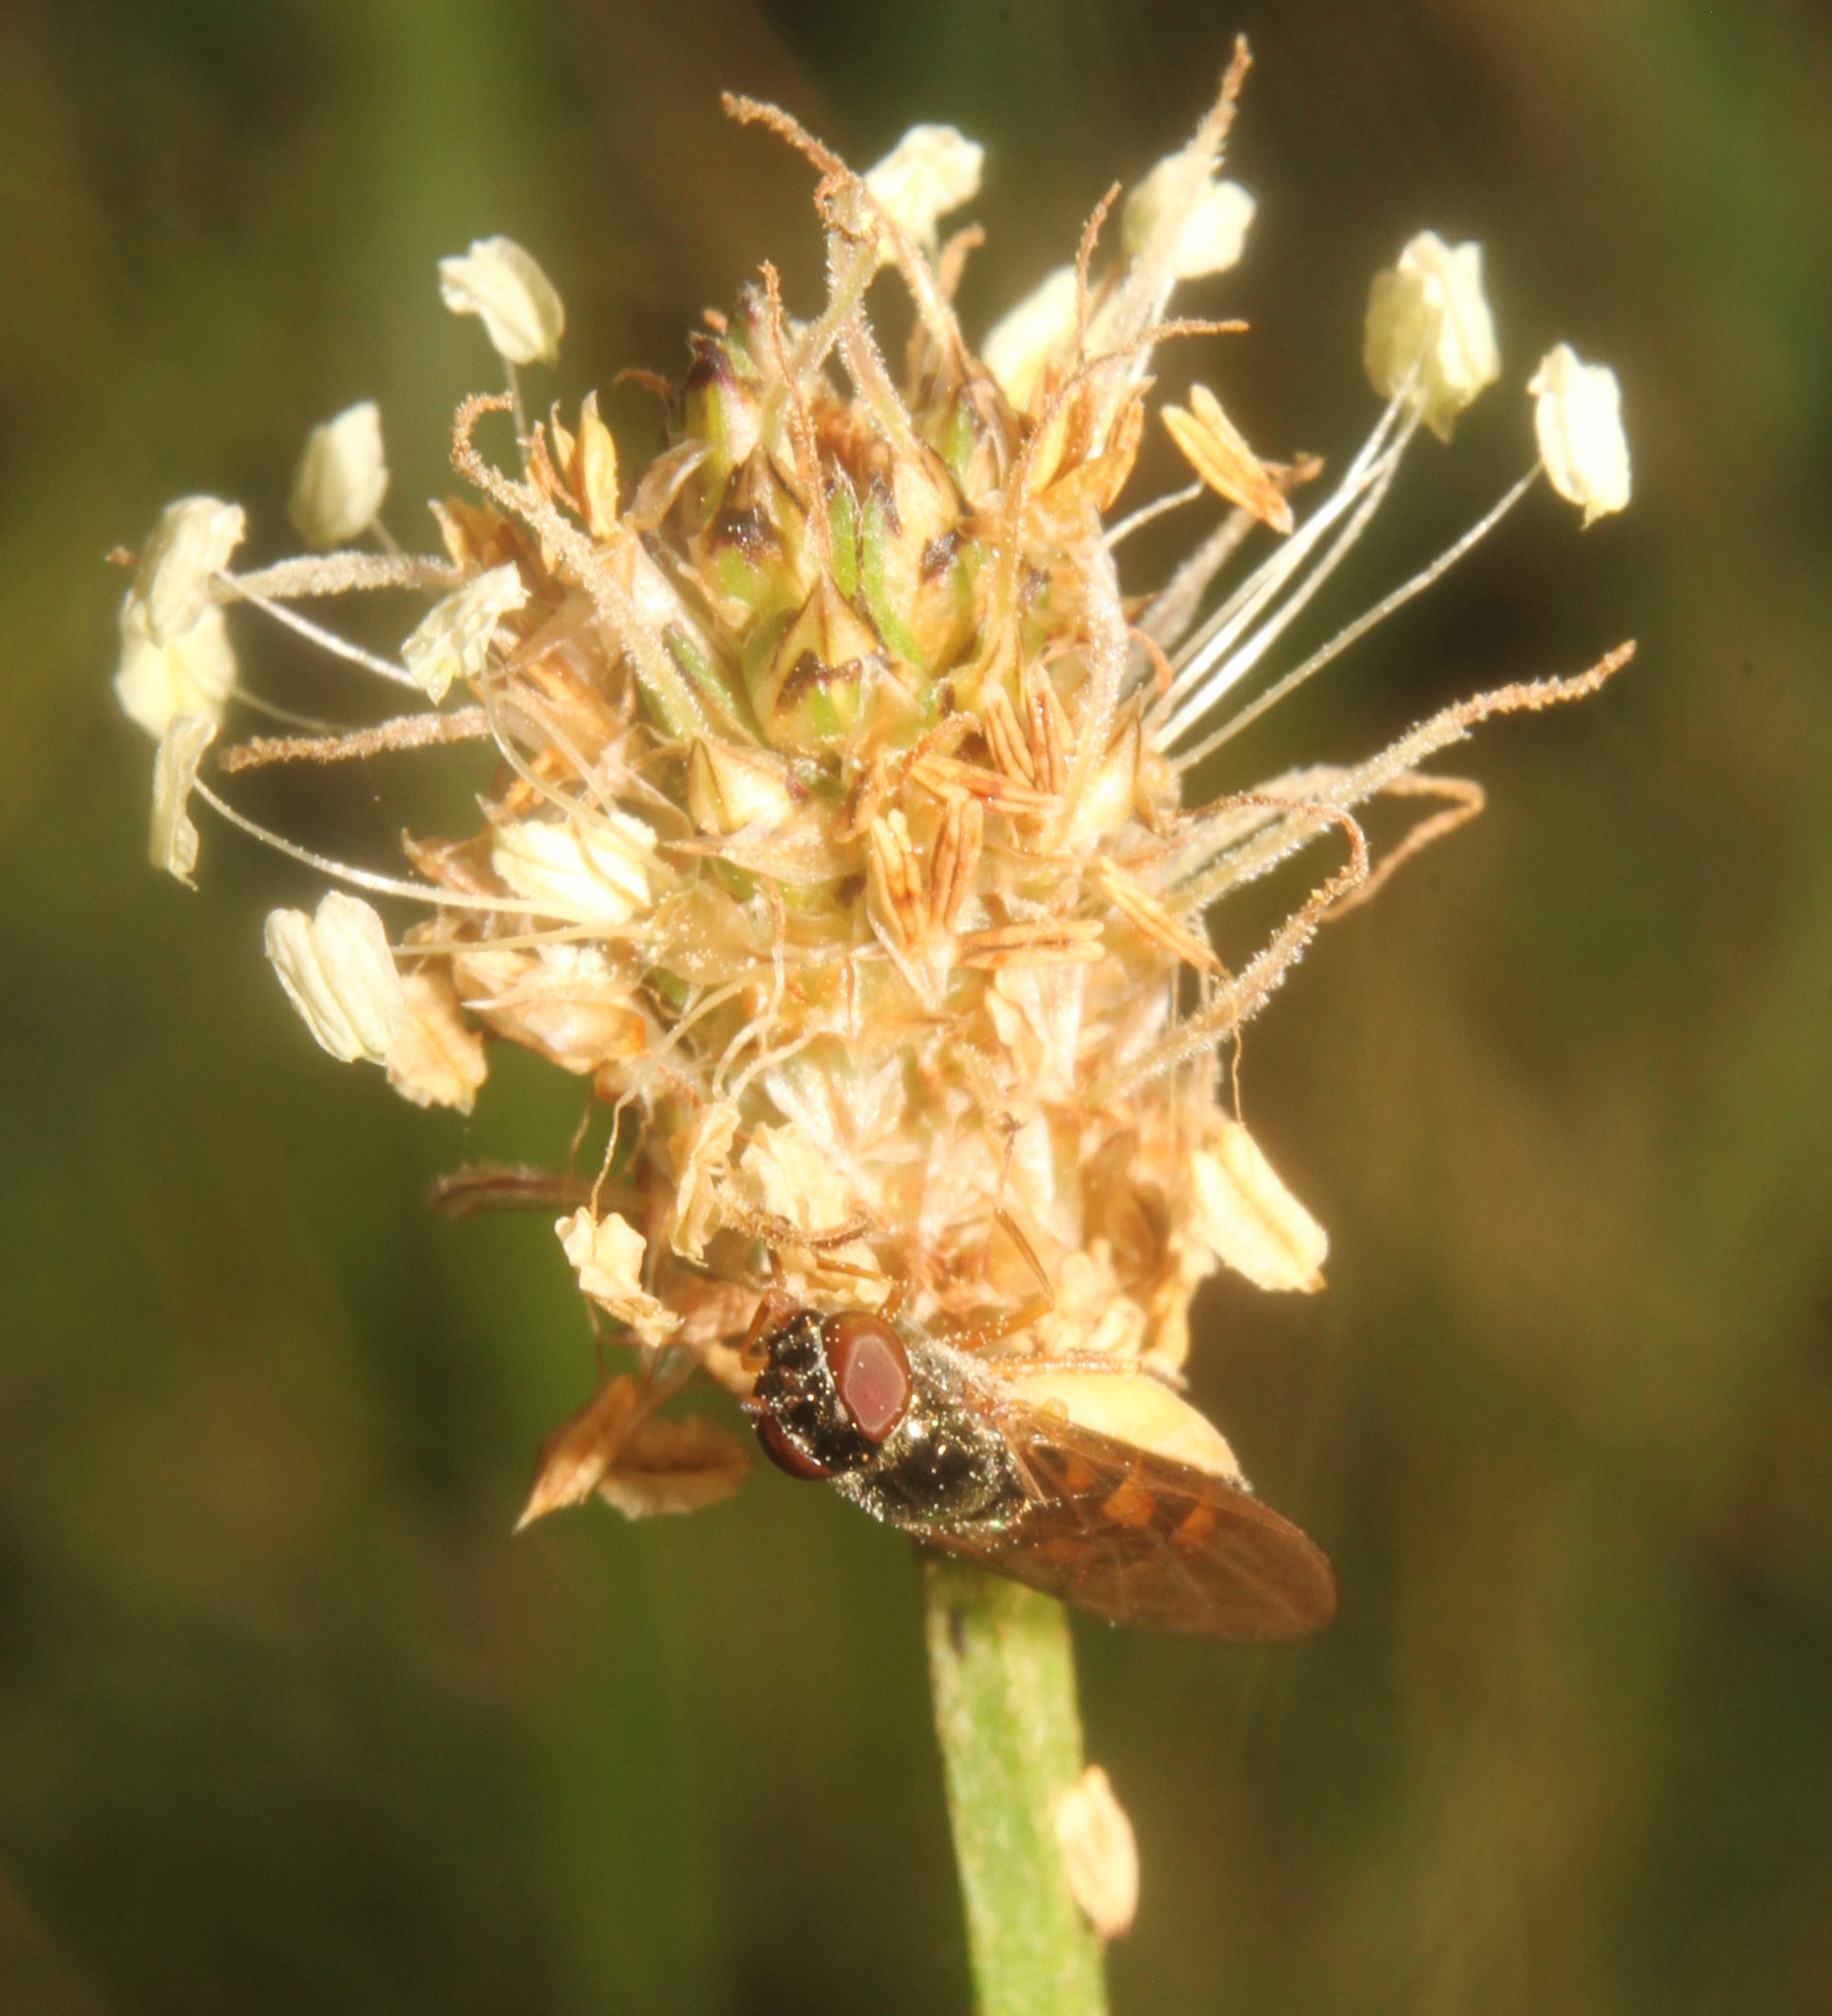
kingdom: Animalia
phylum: Arthropoda
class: Insecta
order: Diptera
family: Syrphidae
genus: Melanostoma
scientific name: Melanostoma
